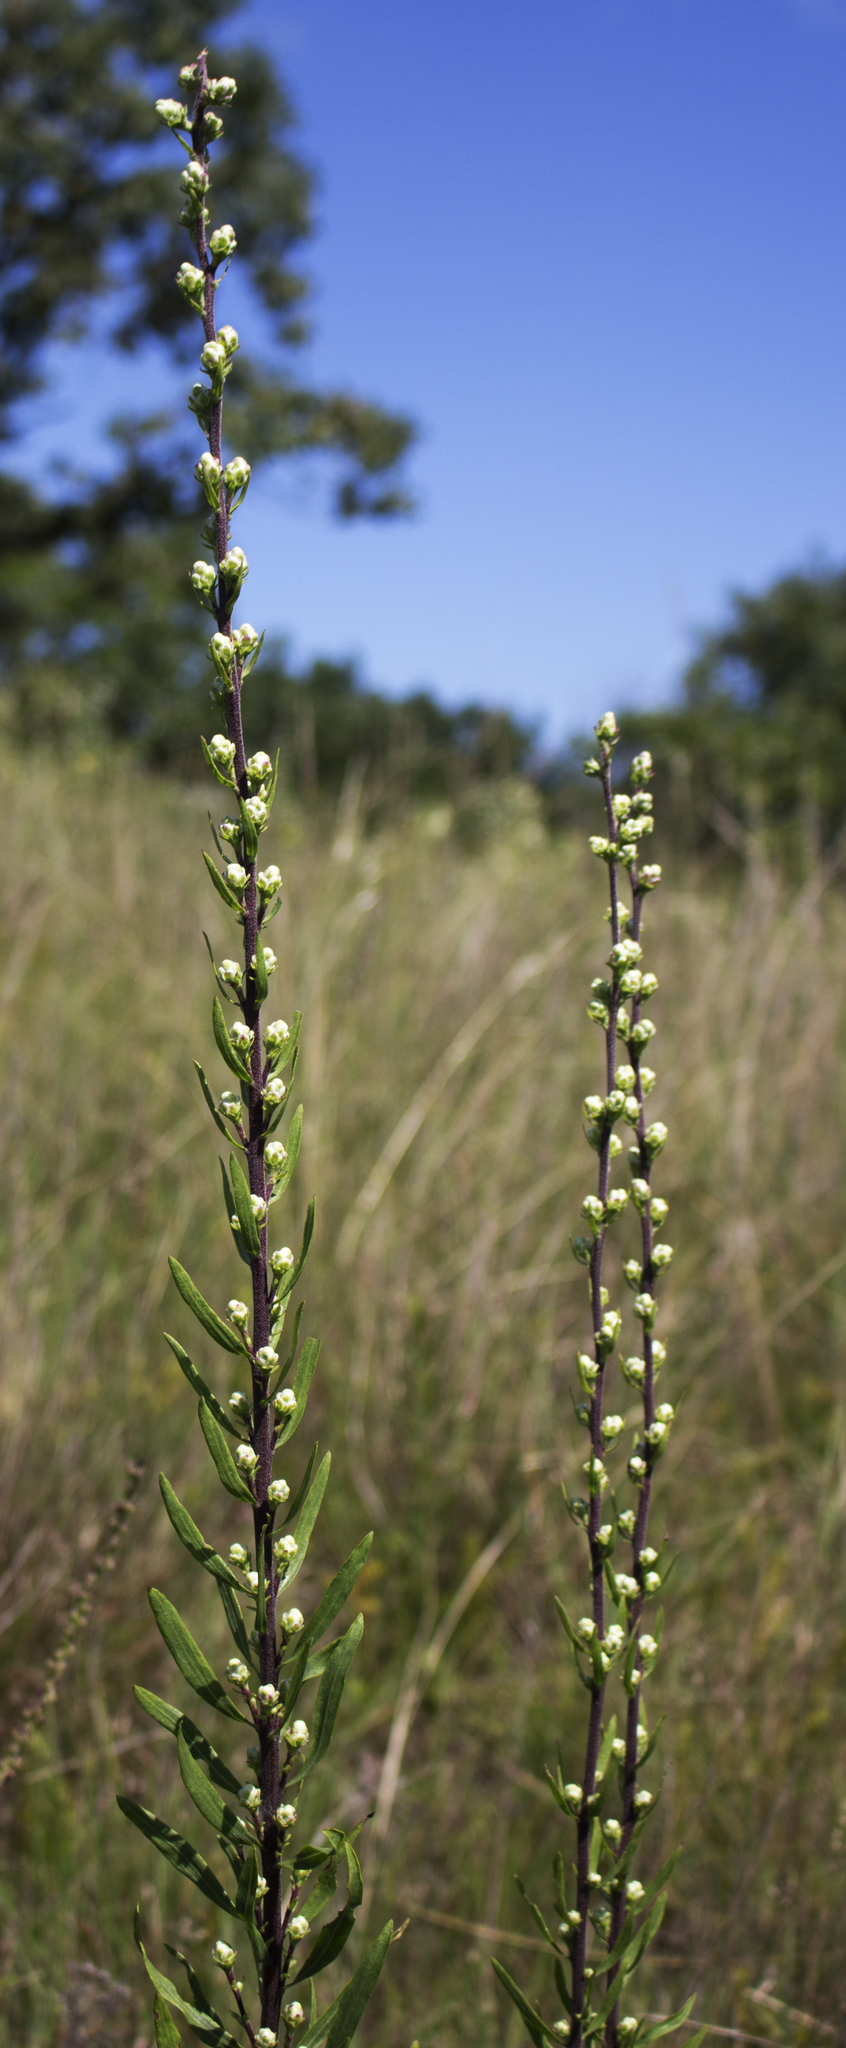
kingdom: Plantae
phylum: Tracheophyta
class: Magnoliopsida
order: Asterales
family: Asteraceae
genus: Liatris
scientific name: Liatris aspera
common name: Lacerate blazing-star
